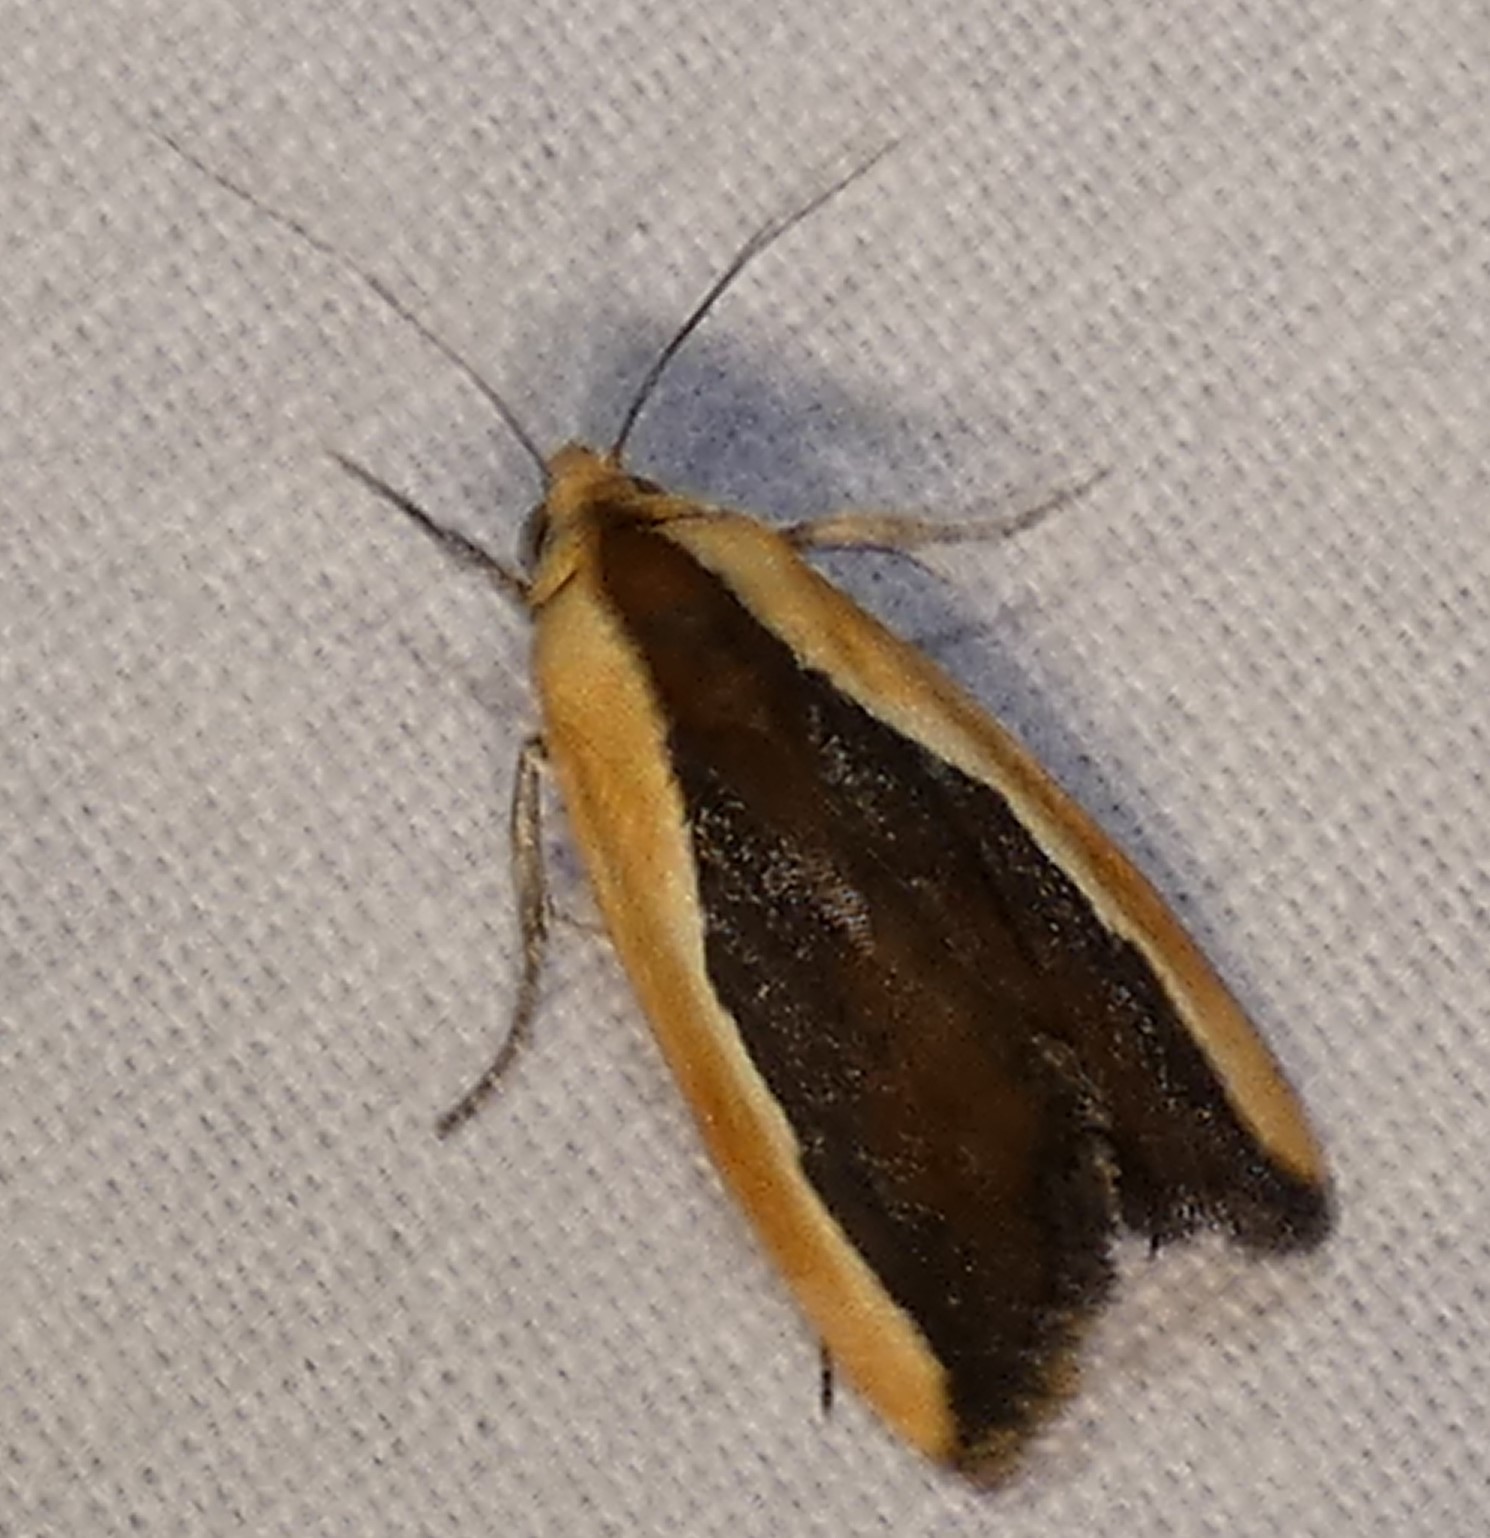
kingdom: Animalia
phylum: Arthropoda
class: Insecta
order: Lepidoptera
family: Noctuidae
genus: Acontia
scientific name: Acontia exigua
